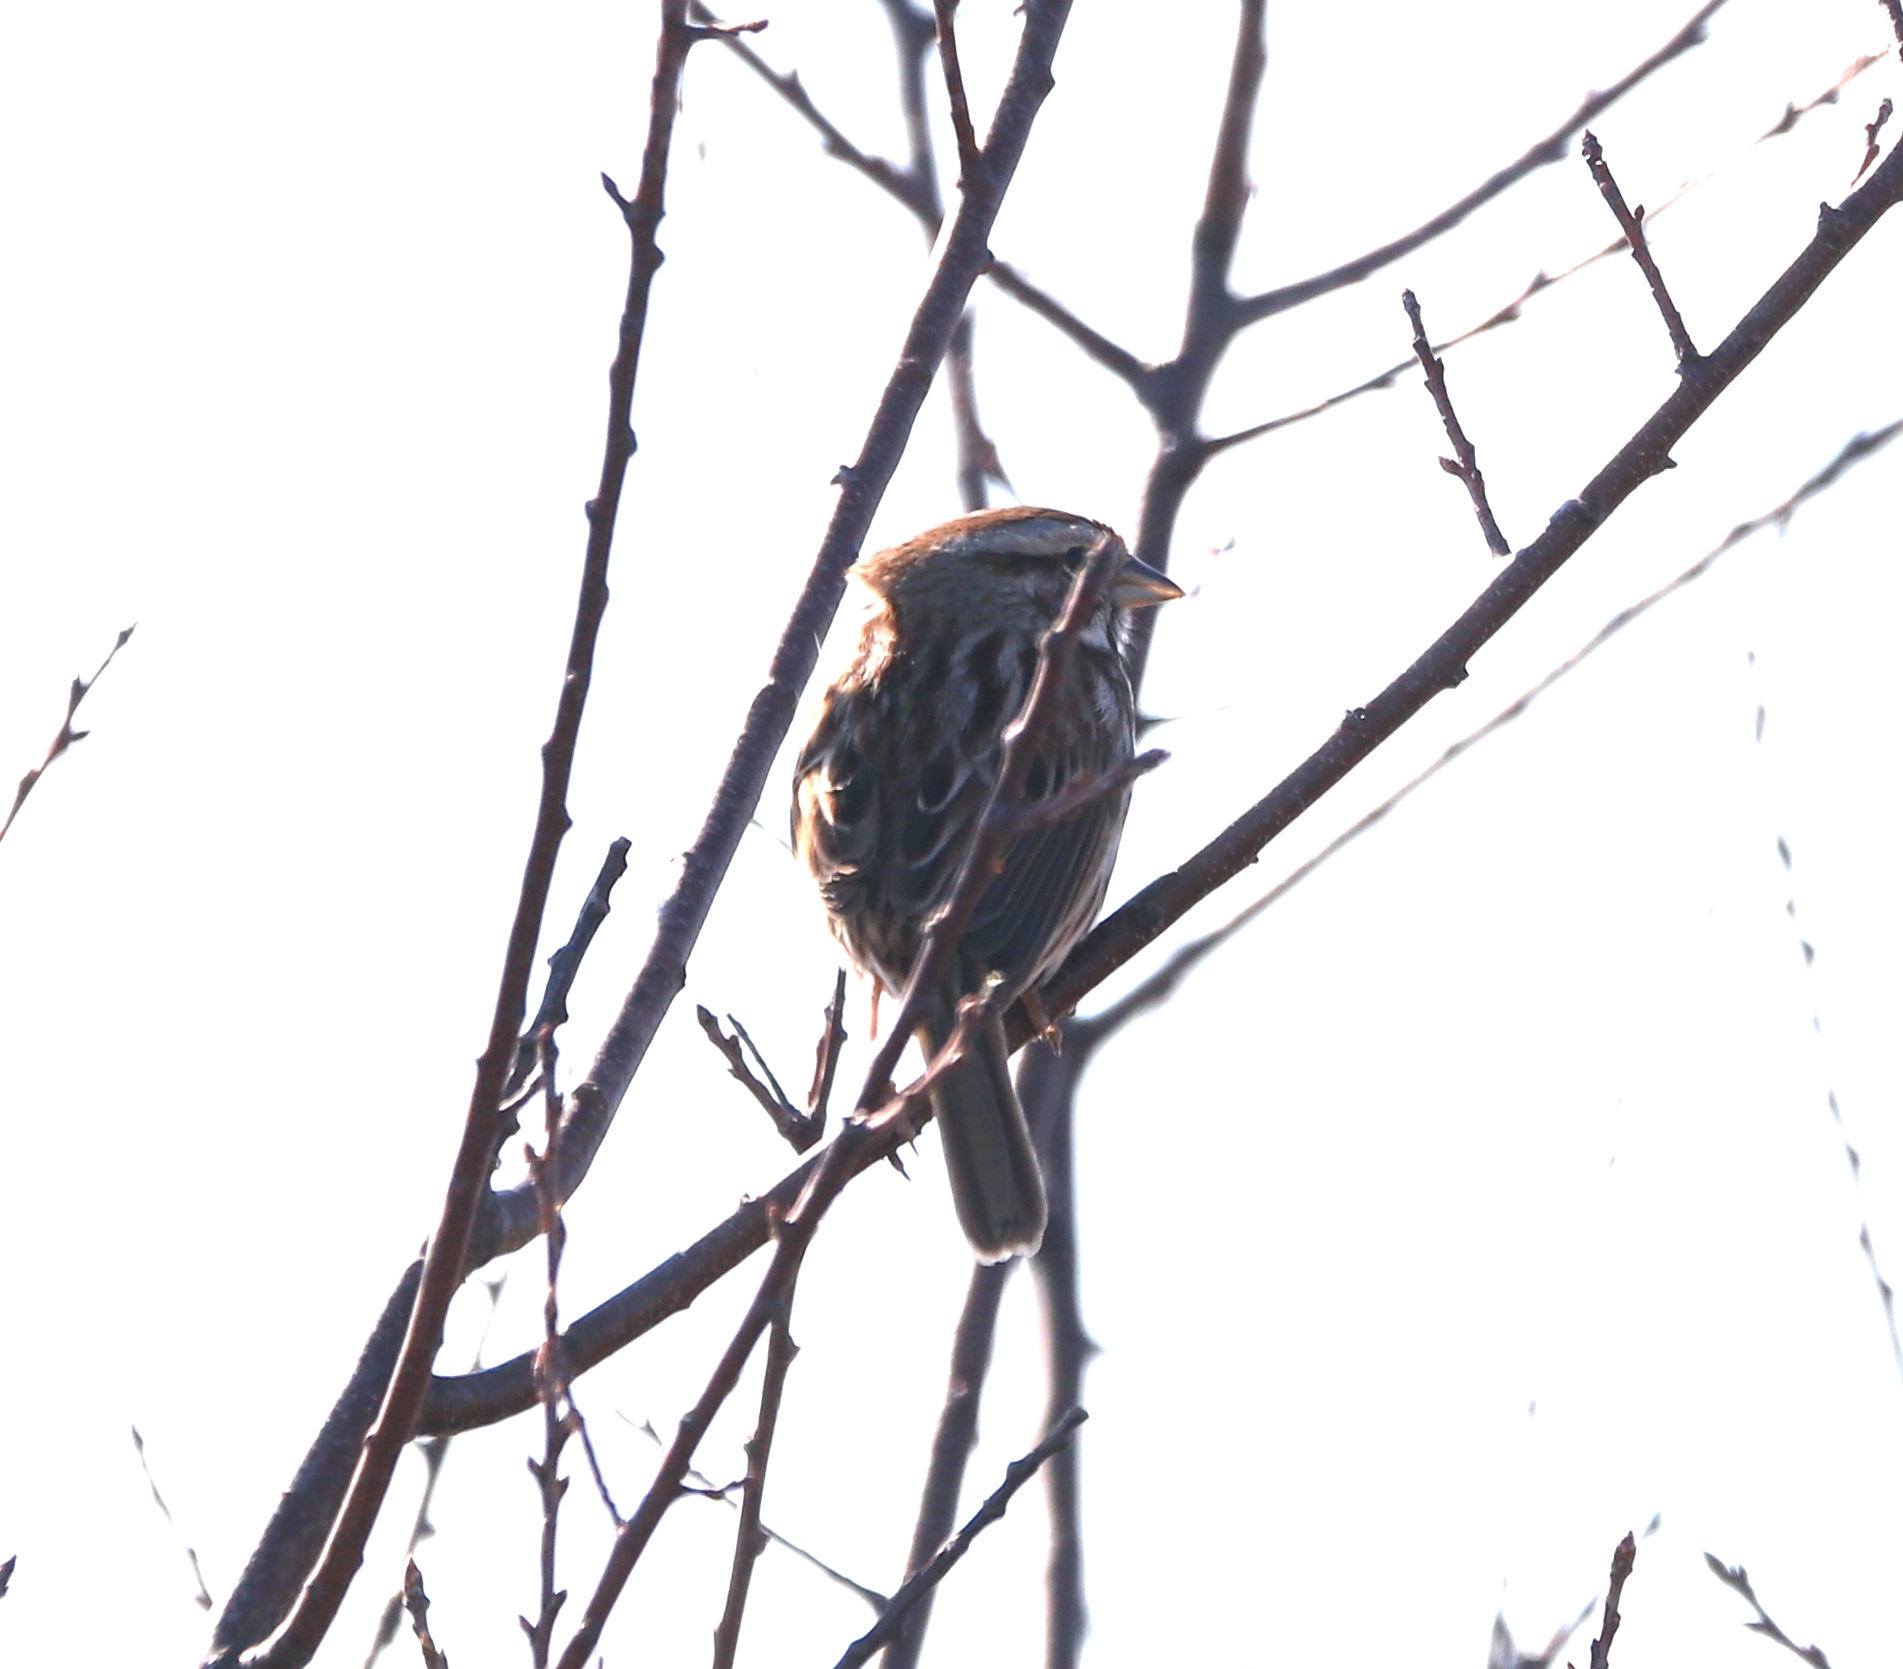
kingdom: Animalia
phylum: Chordata
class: Aves
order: Passeriformes
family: Passerellidae
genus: Melospiza
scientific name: Melospiza melodia
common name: Song sparrow
